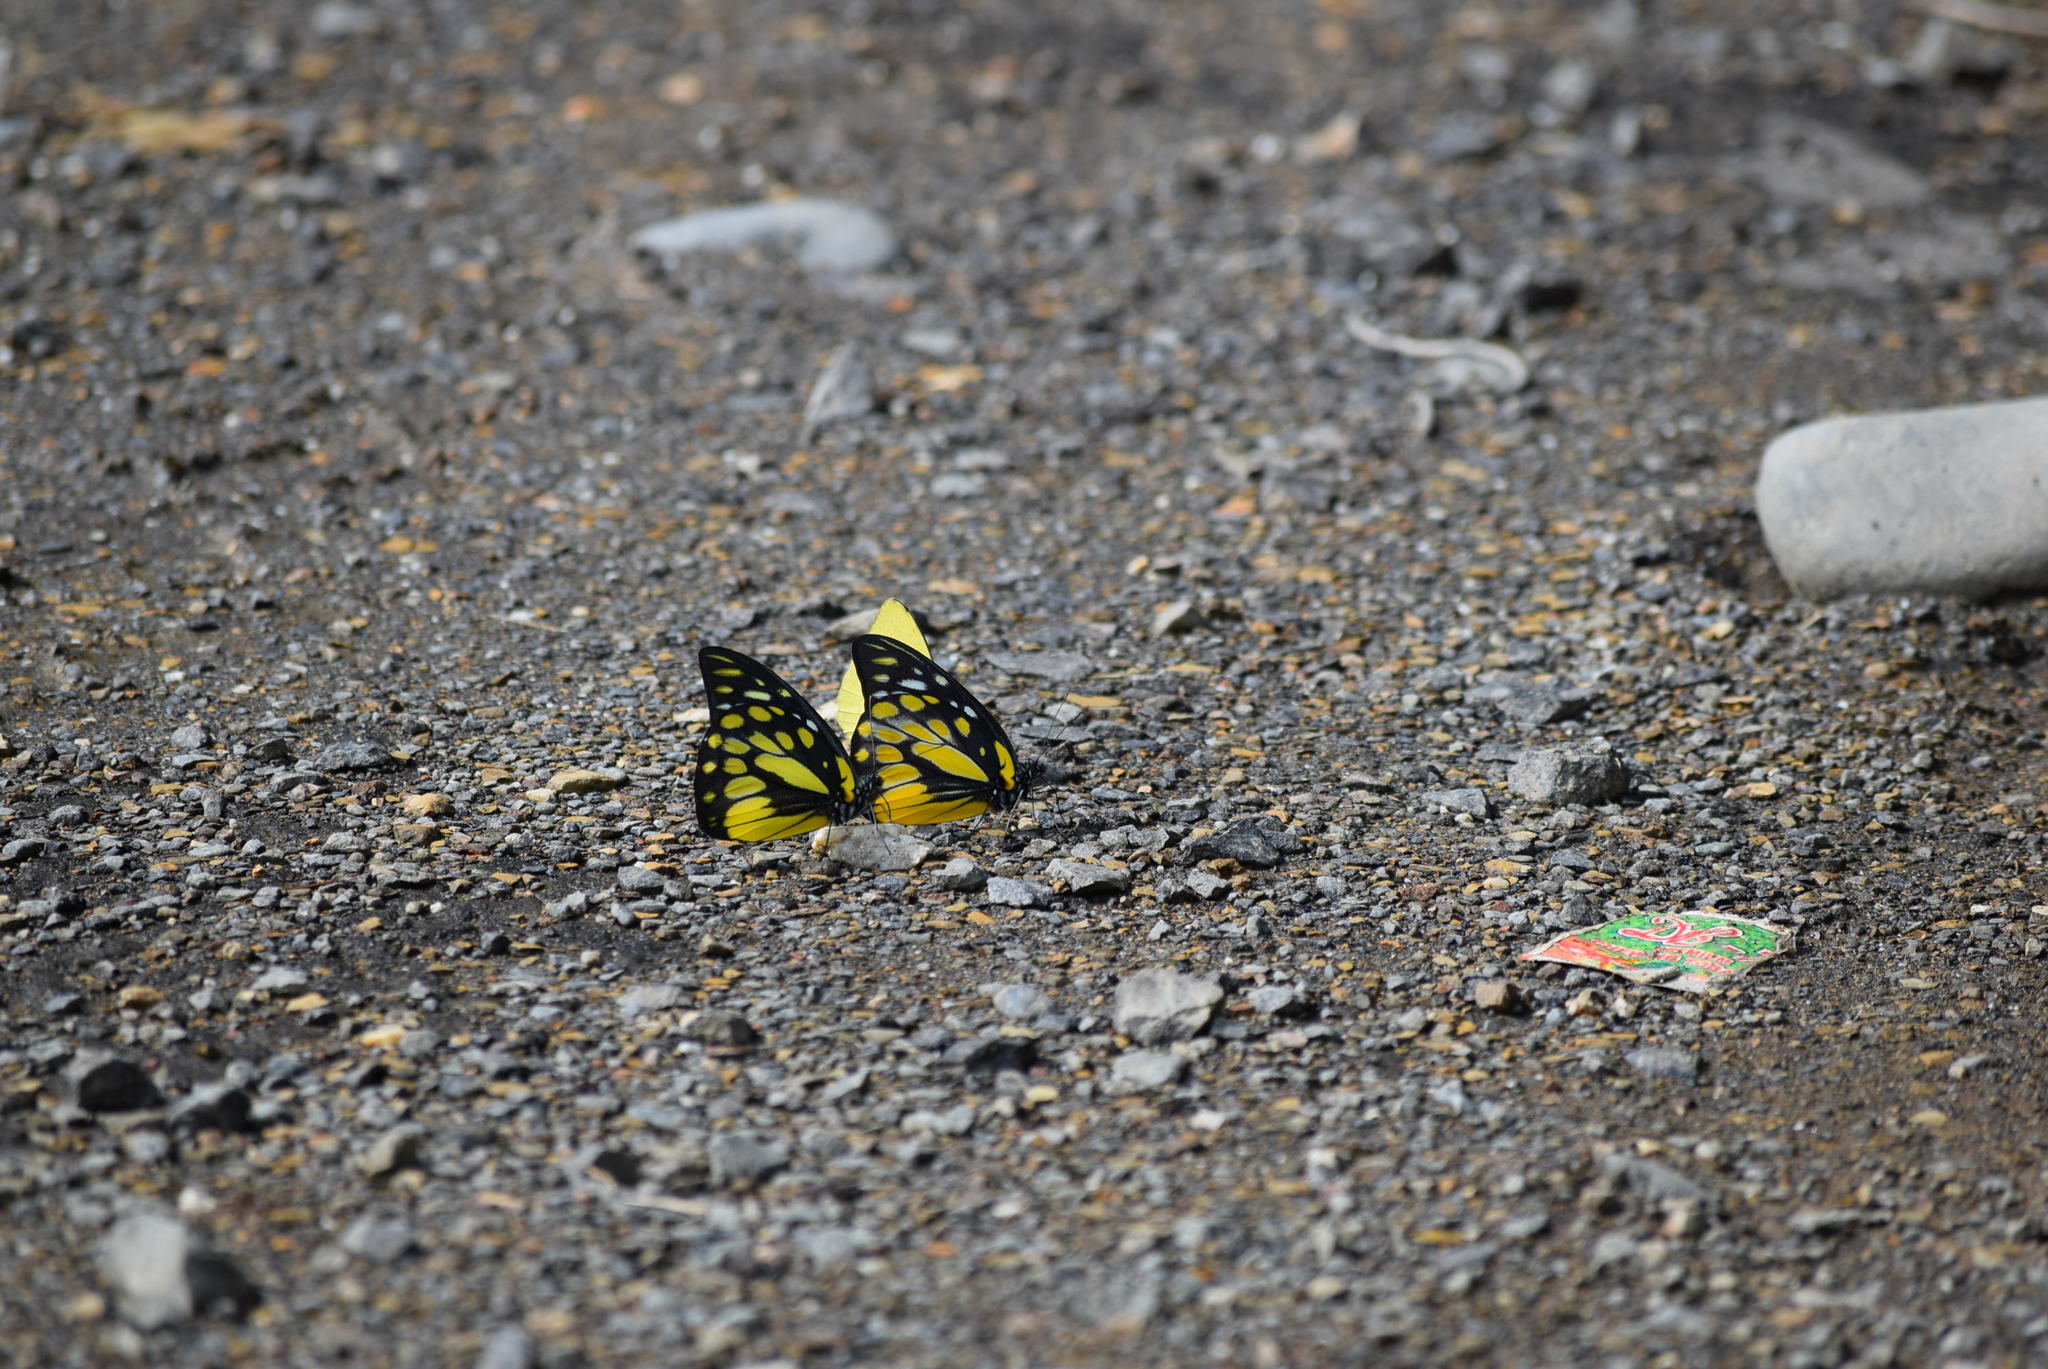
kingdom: Animalia
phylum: Arthropoda
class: Insecta
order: Lepidoptera
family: Pieridae
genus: Prioneris
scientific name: Prioneris thestylis
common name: Spotted sawtooth
